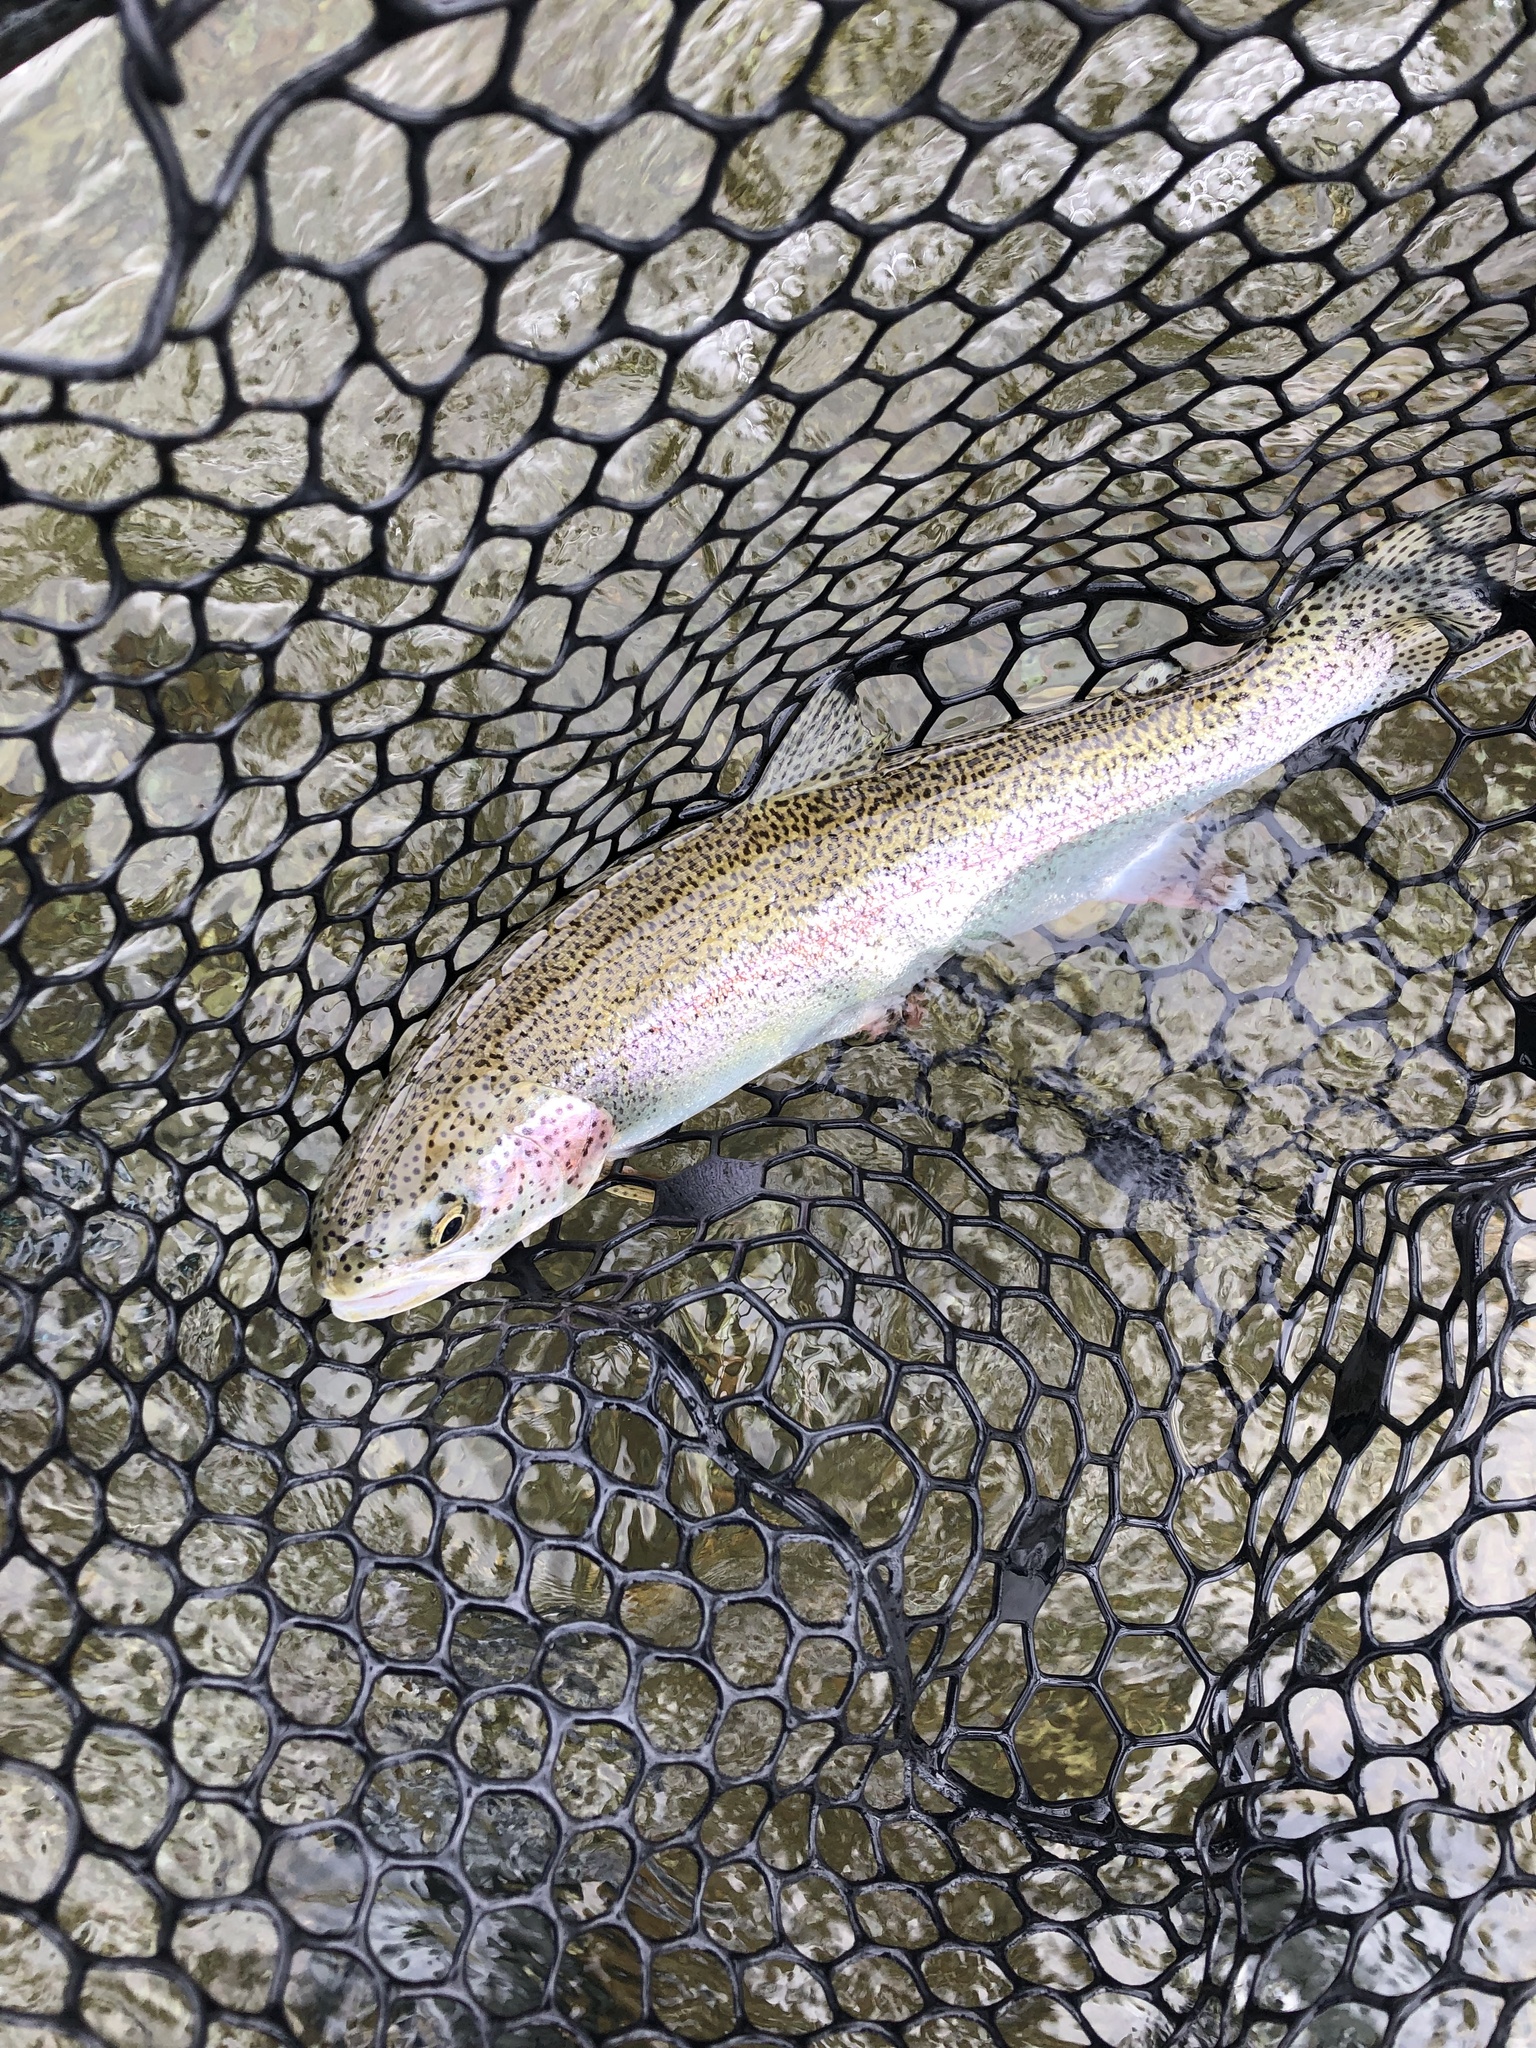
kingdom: Animalia
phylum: Chordata
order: Salmoniformes
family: Salmonidae
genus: Oncorhynchus
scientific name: Oncorhynchus mykiss
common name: Rainbow trout
